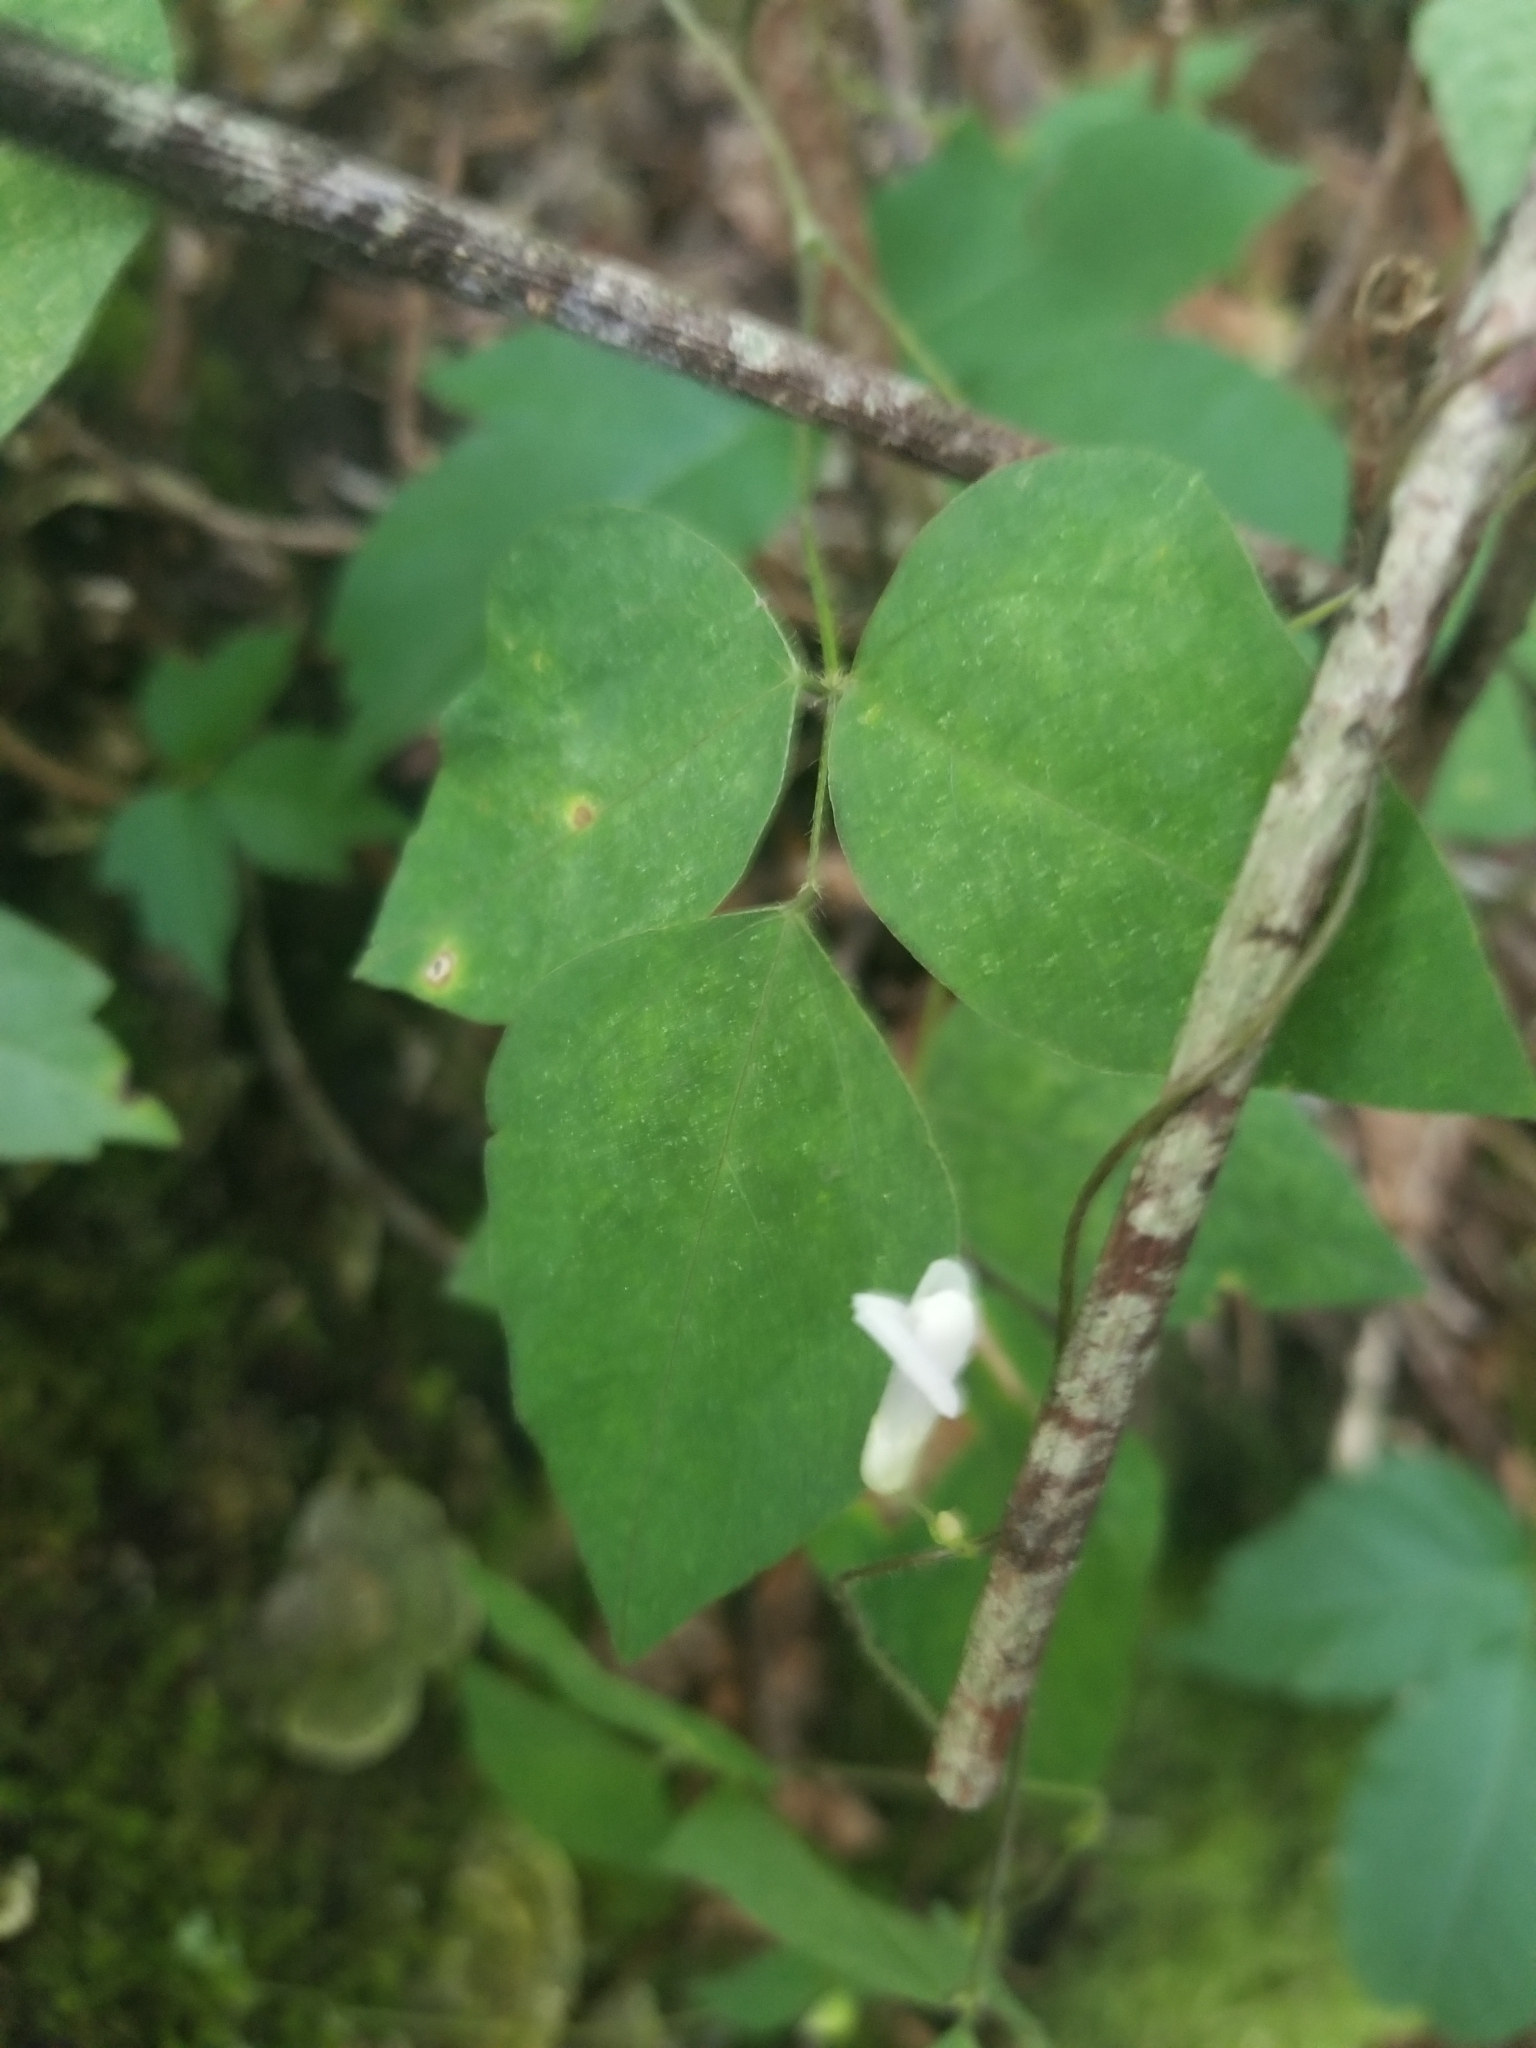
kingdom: Plantae
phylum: Tracheophyta
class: Magnoliopsida
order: Fabales
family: Fabaceae
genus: Amphicarpaea
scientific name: Amphicarpaea bracteata
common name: American hog peanut
